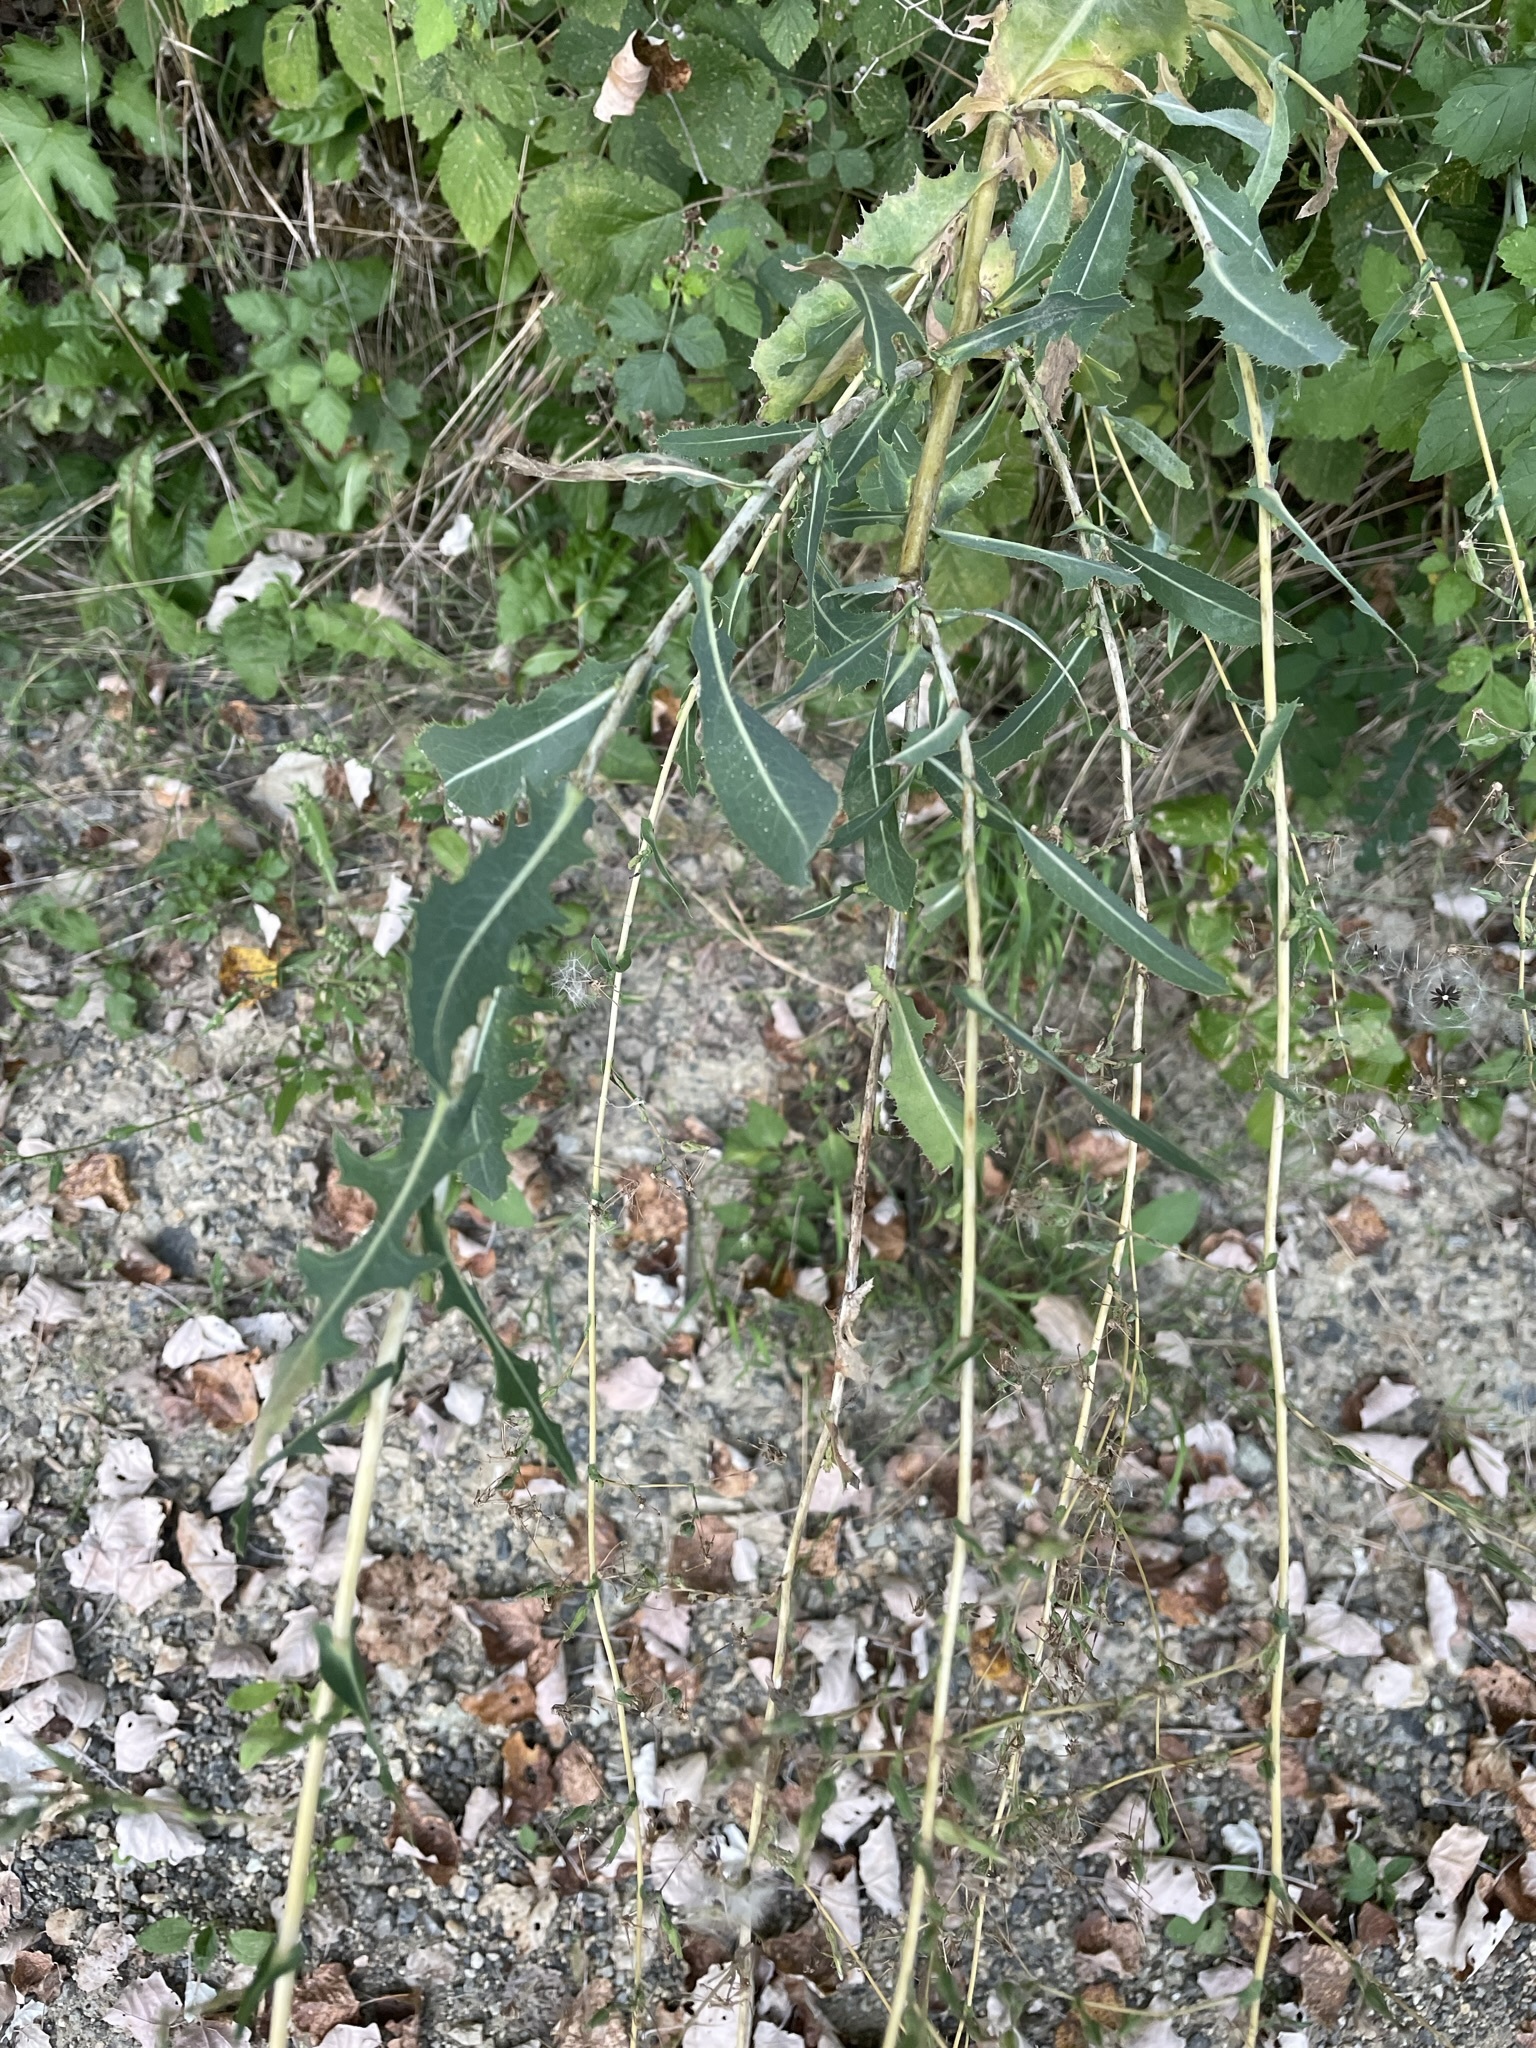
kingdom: Plantae
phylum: Tracheophyta
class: Magnoliopsida
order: Asterales
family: Asteraceae
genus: Lactuca
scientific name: Lactuca serriola
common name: Prickly lettuce
